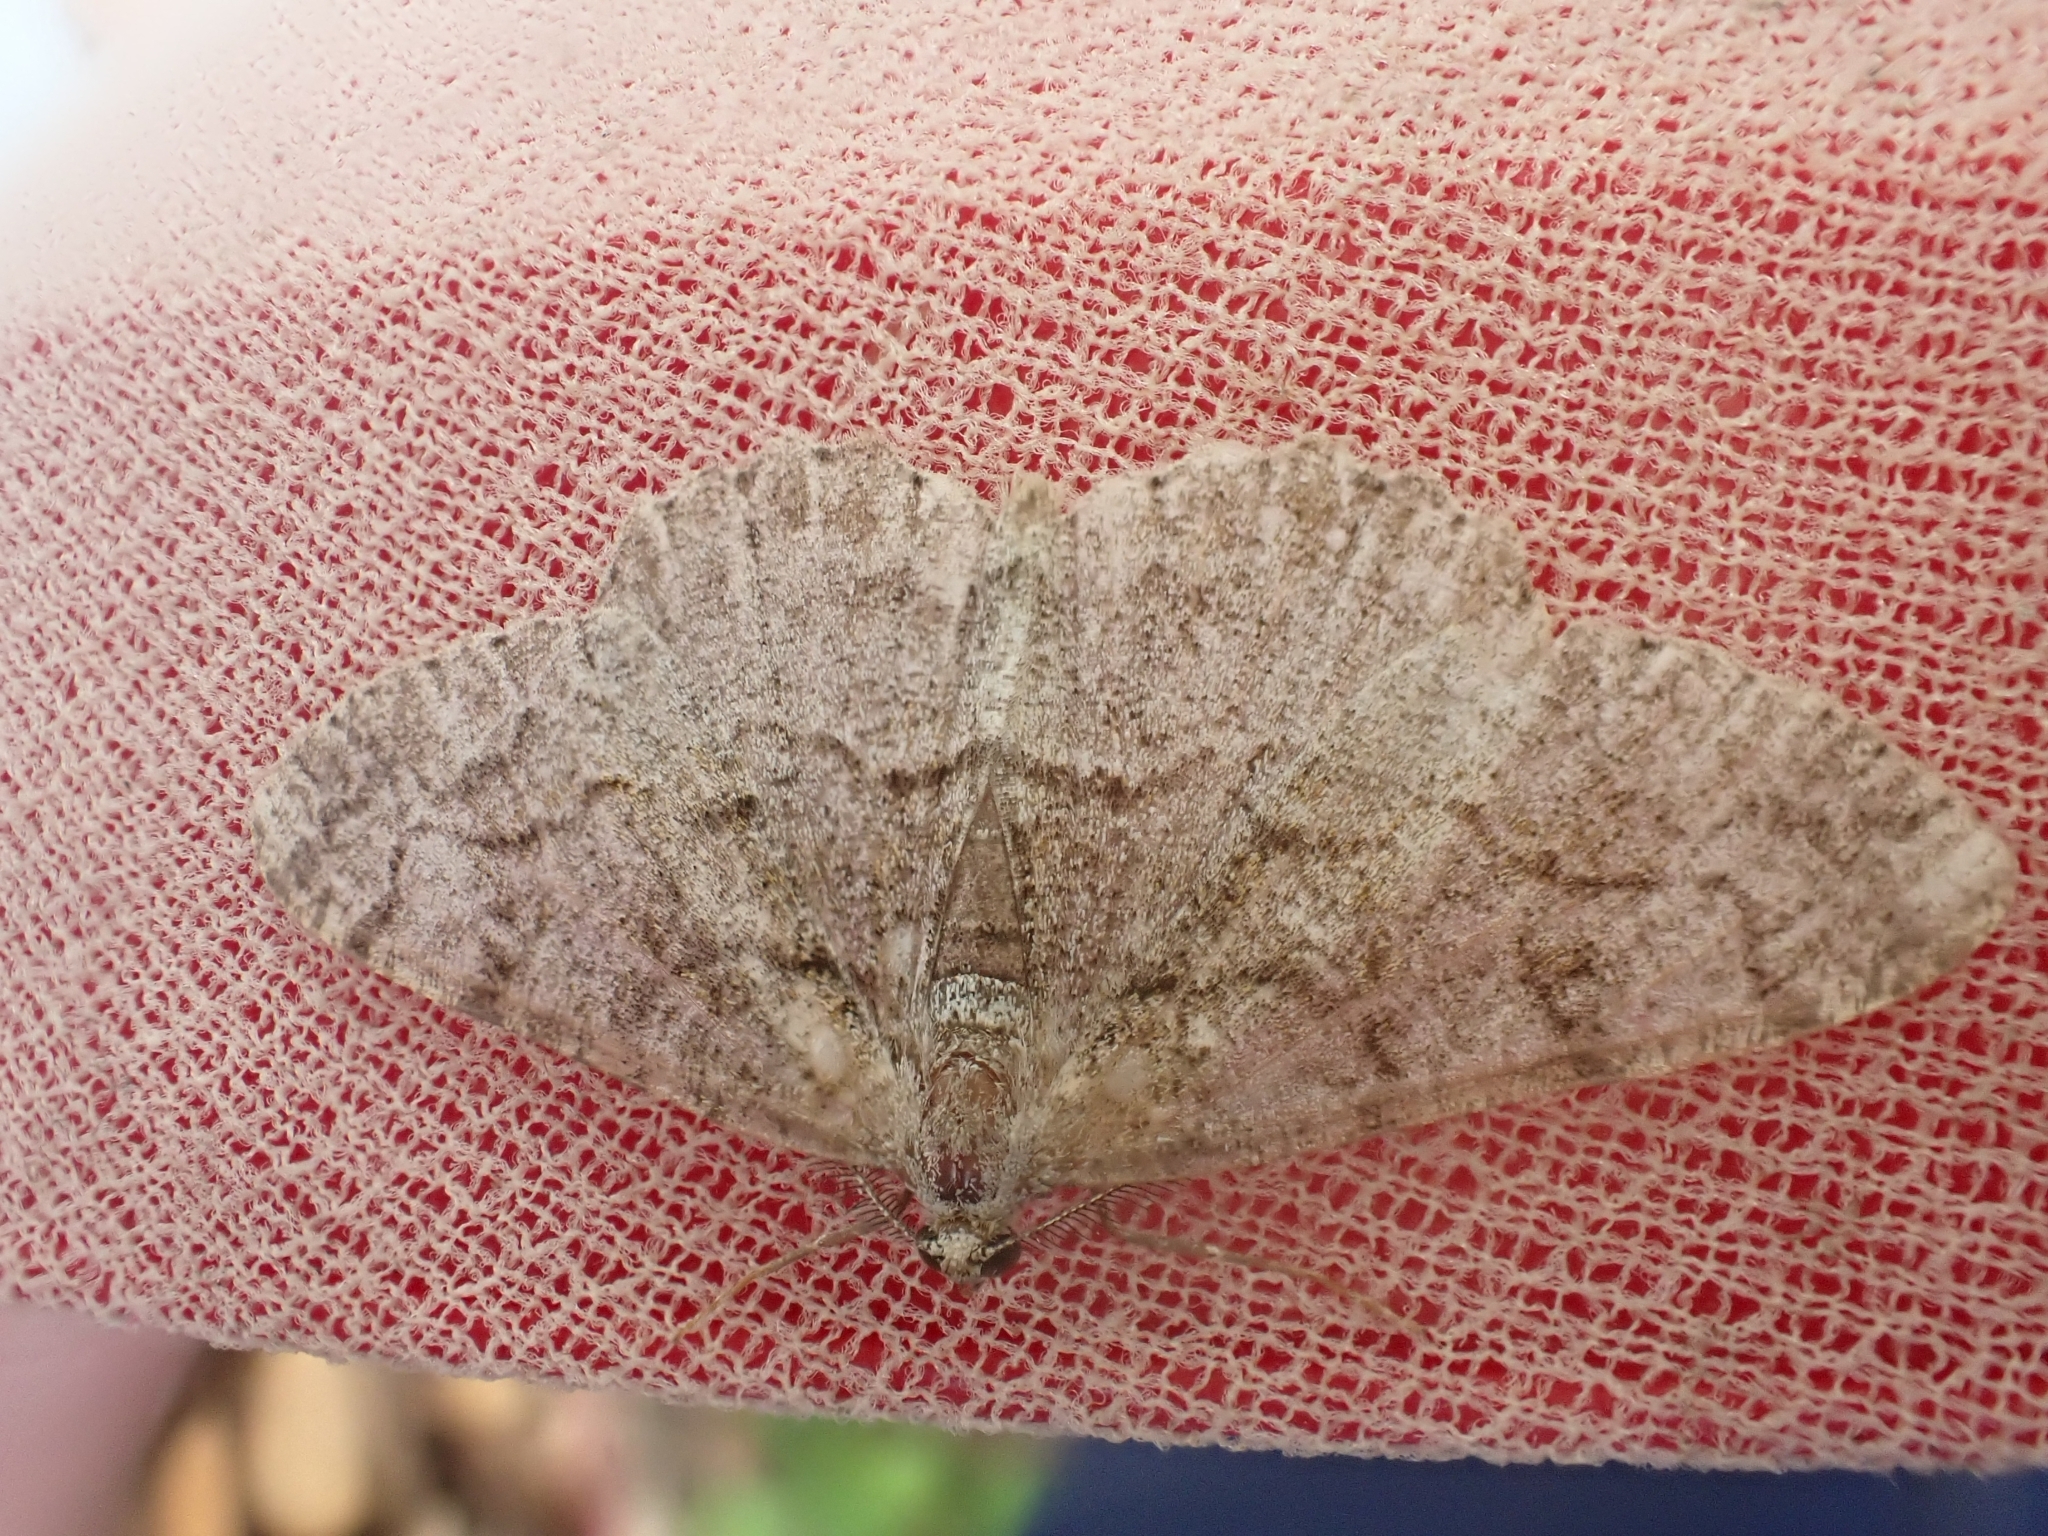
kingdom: Animalia
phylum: Arthropoda
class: Insecta
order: Lepidoptera
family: Geometridae
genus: Alcis
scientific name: Alcis repandata
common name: Mottled beauty
